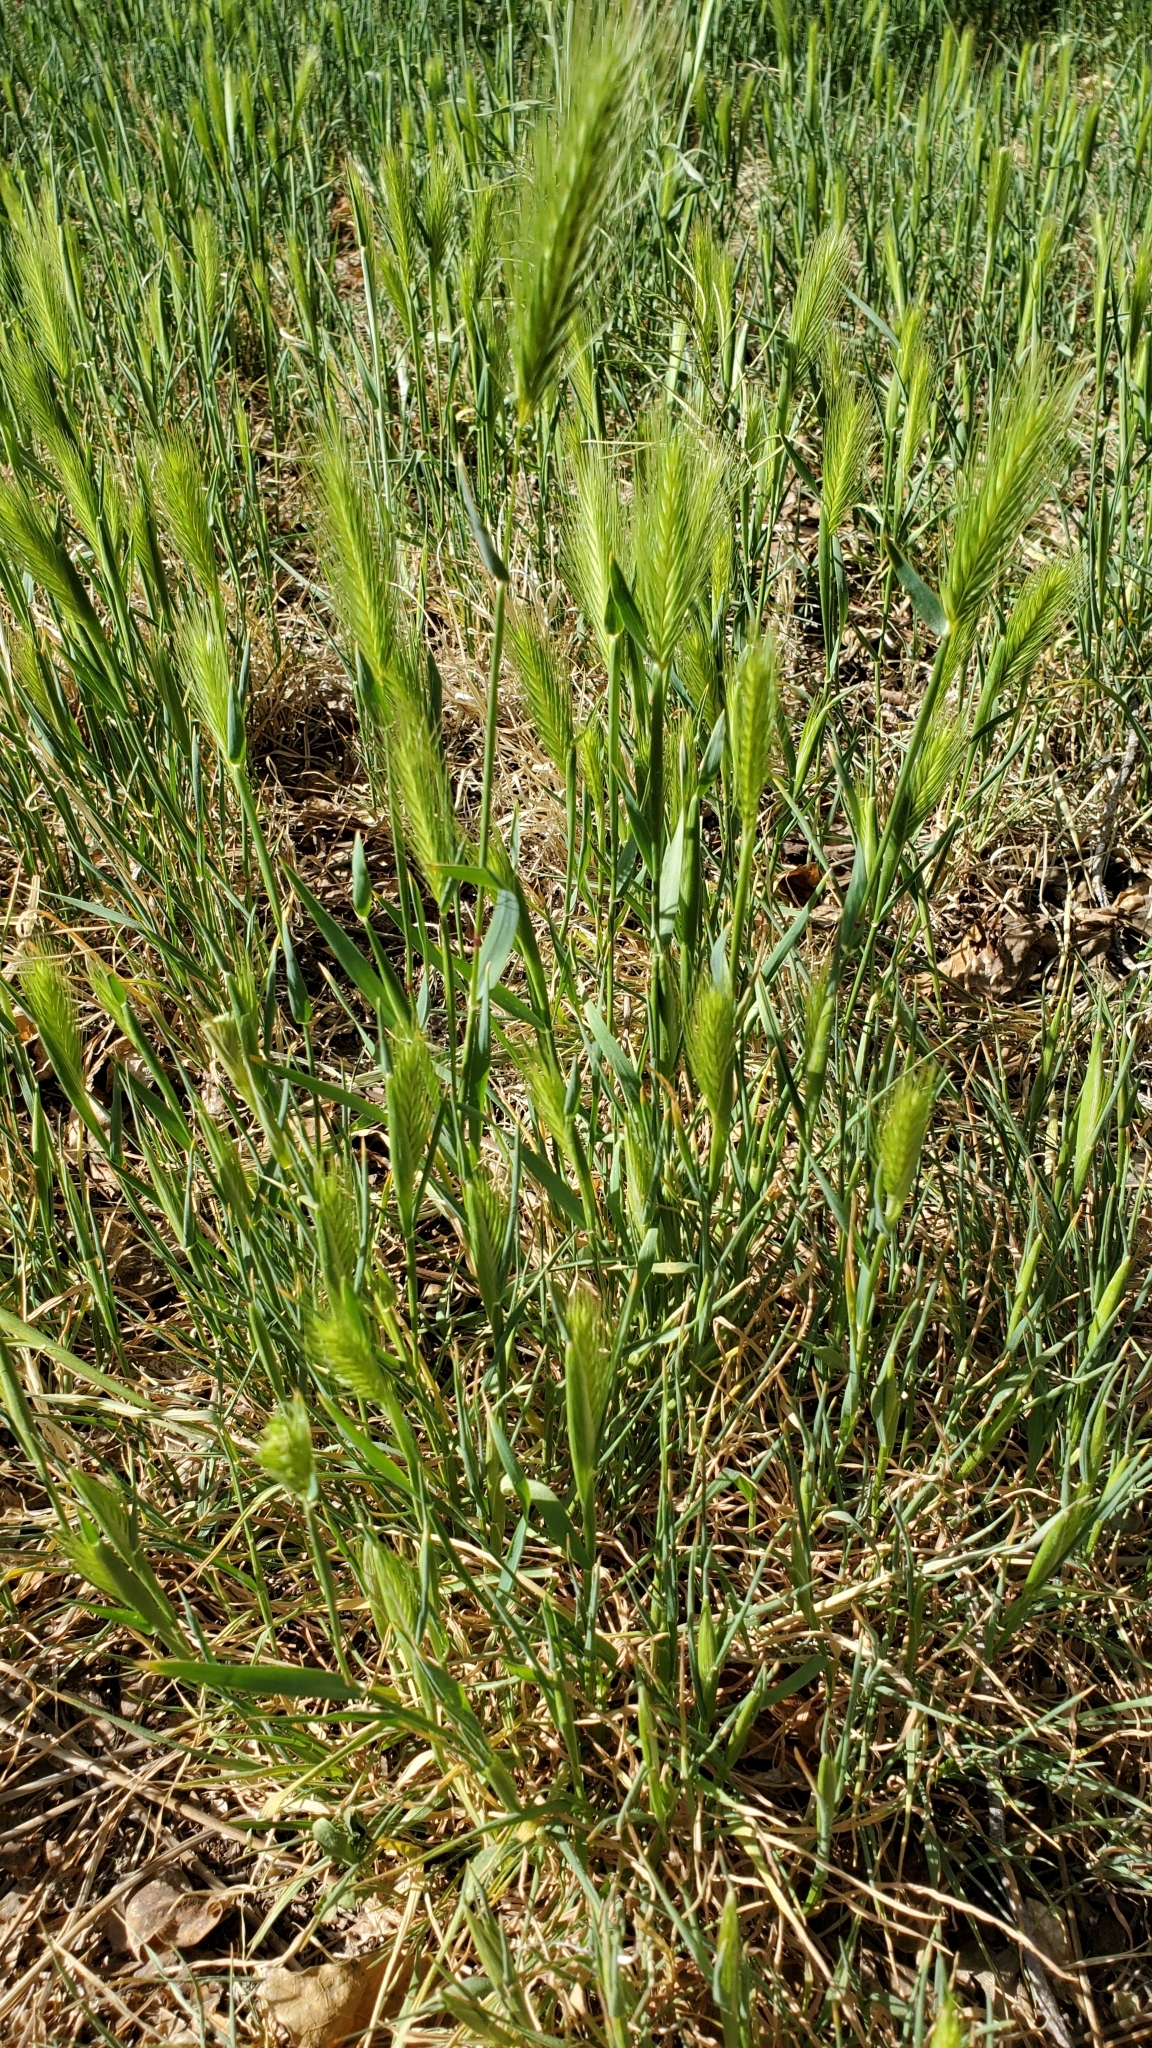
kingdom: Plantae
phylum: Tracheophyta
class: Liliopsida
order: Poales
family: Poaceae
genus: Hordeum
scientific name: Hordeum murinum
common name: Wall barley
